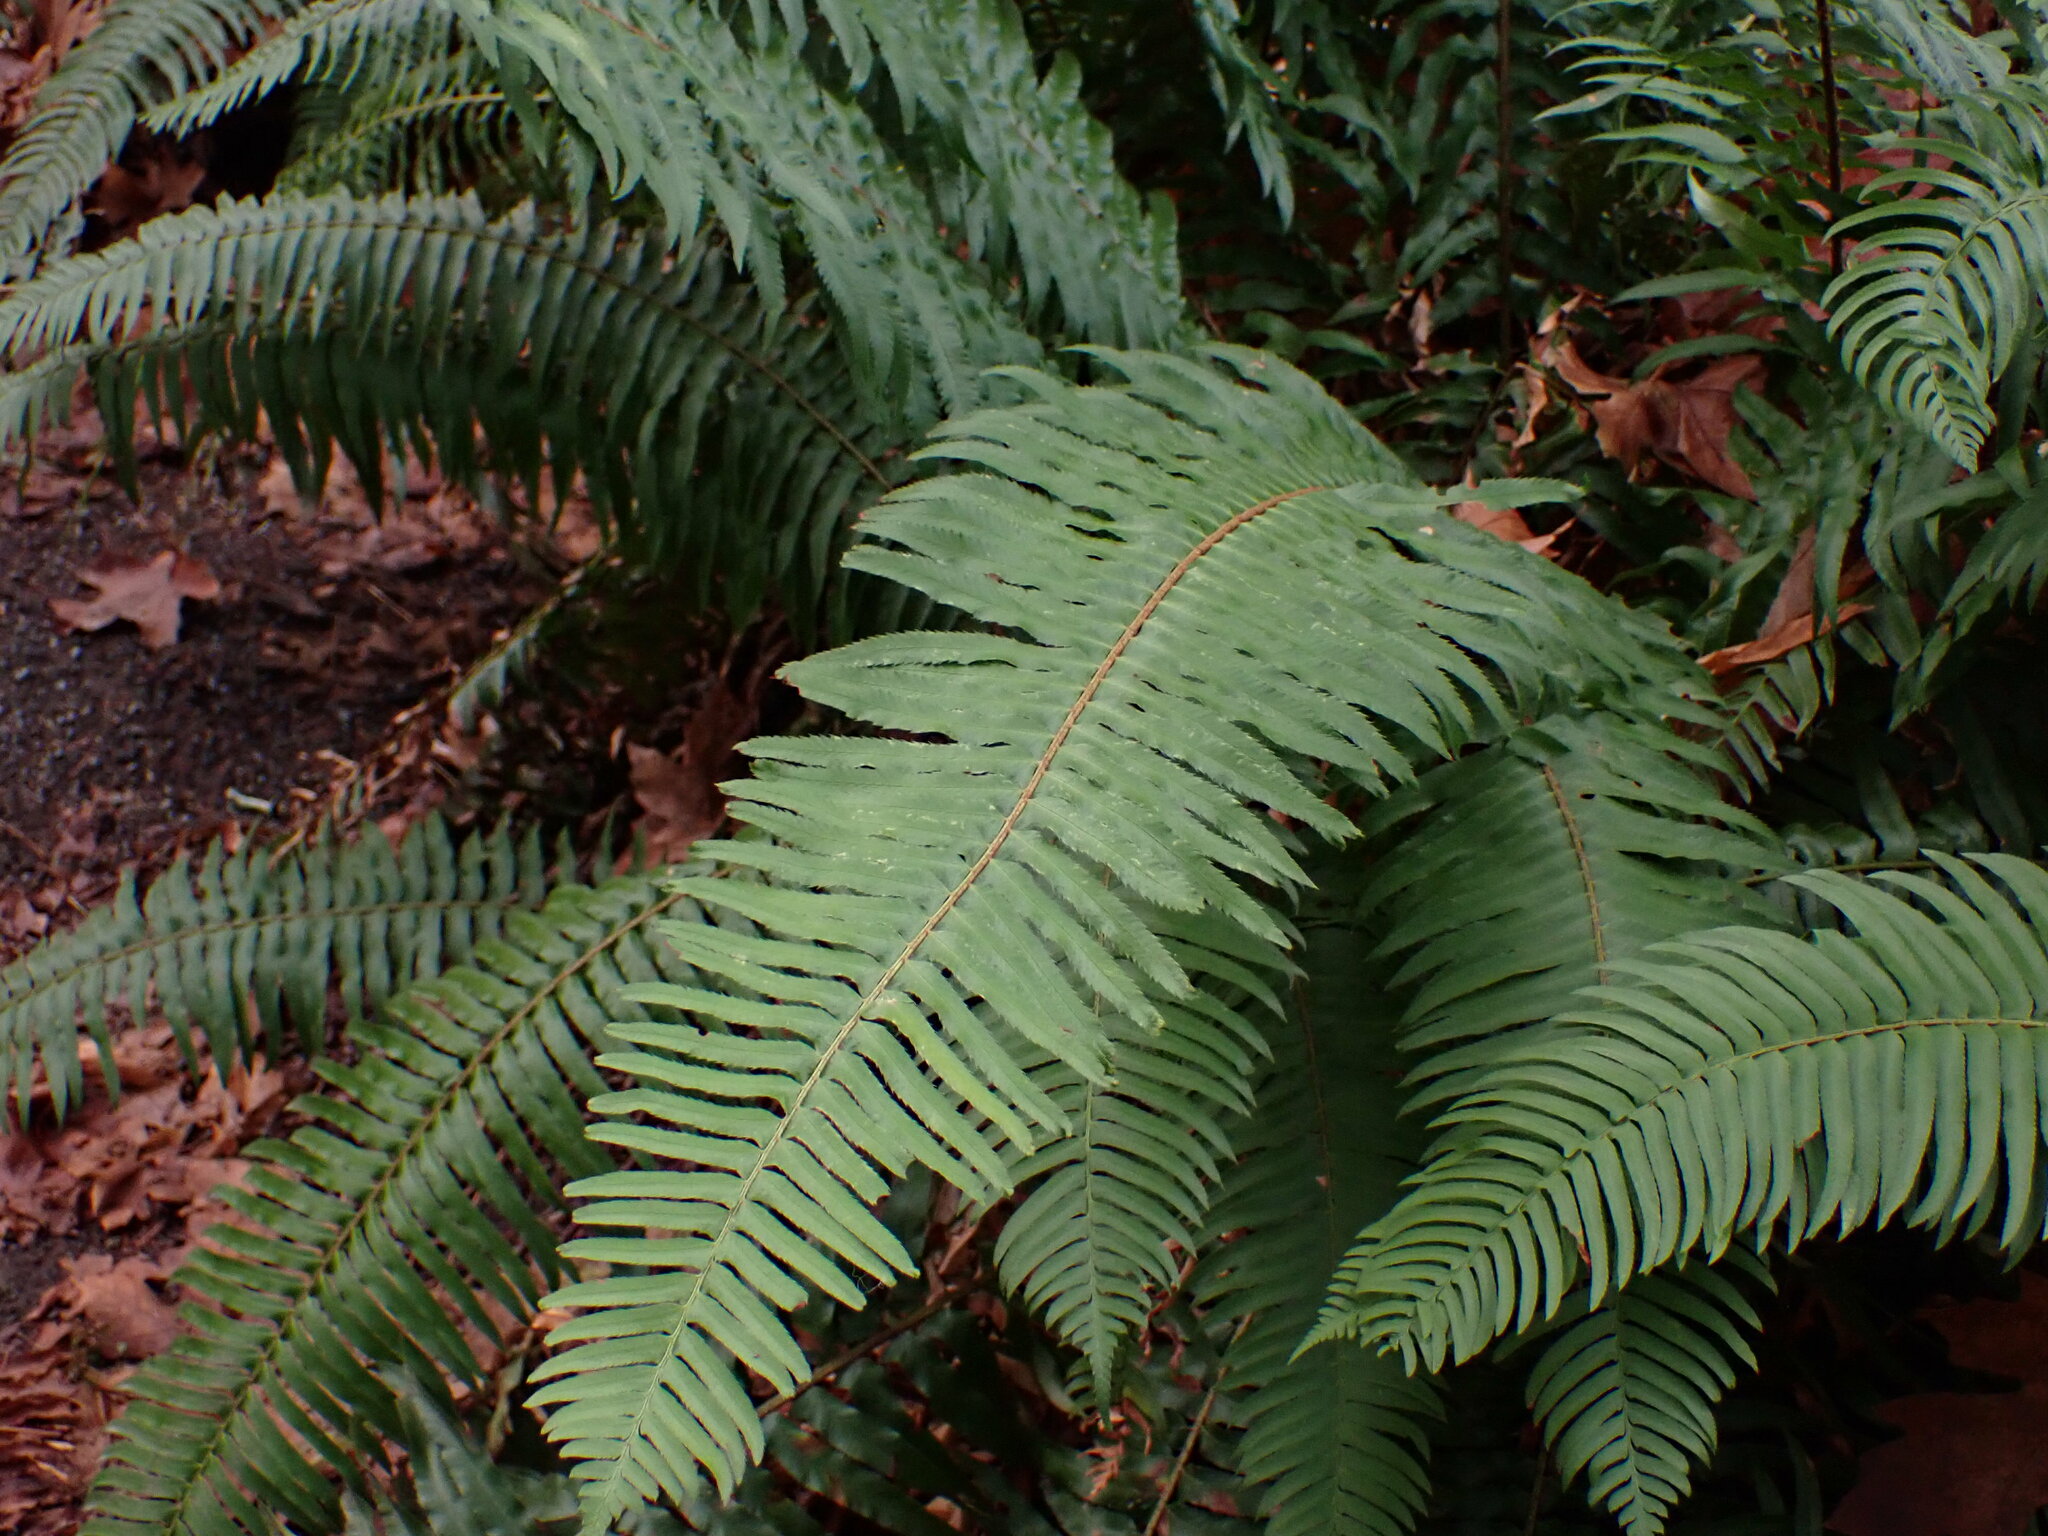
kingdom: Plantae
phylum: Tracheophyta
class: Polypodiopsida
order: Polypodiales
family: Dryopteridaceae
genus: Polystichum
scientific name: Polystichum munitum
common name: Western sword-fern
